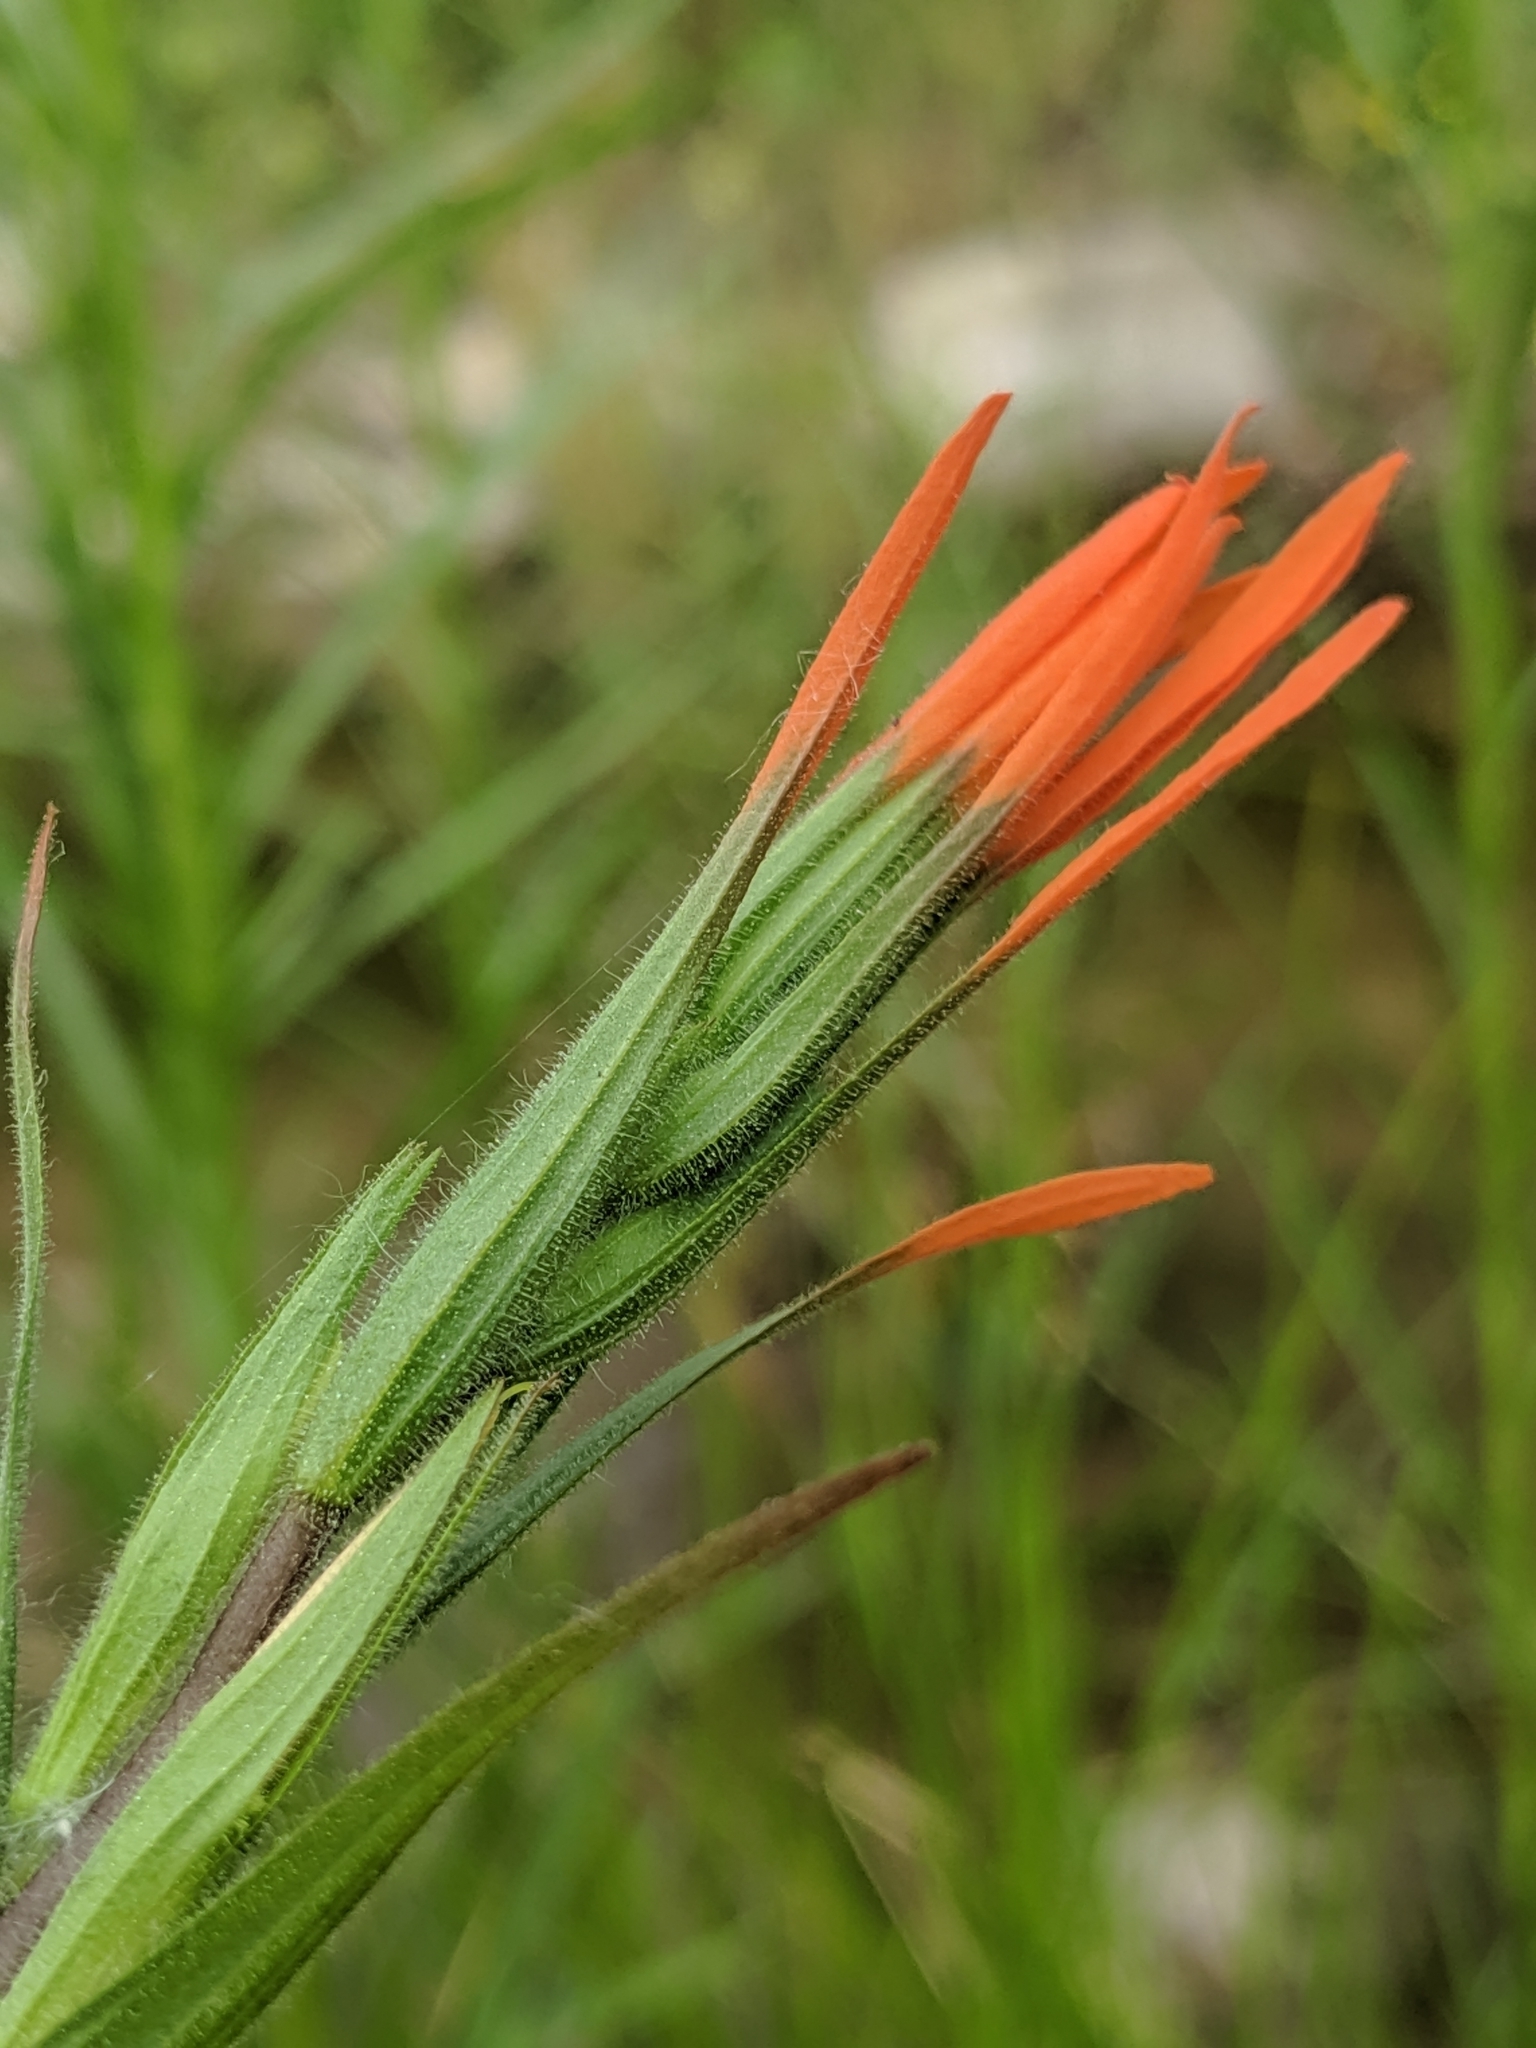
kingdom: Plantae
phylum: Tracheophyta
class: Magnoliopsida
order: Lamiales
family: Orobanchaceae
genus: Castilleja
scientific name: Castilleja minor
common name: Seep paintbrush
